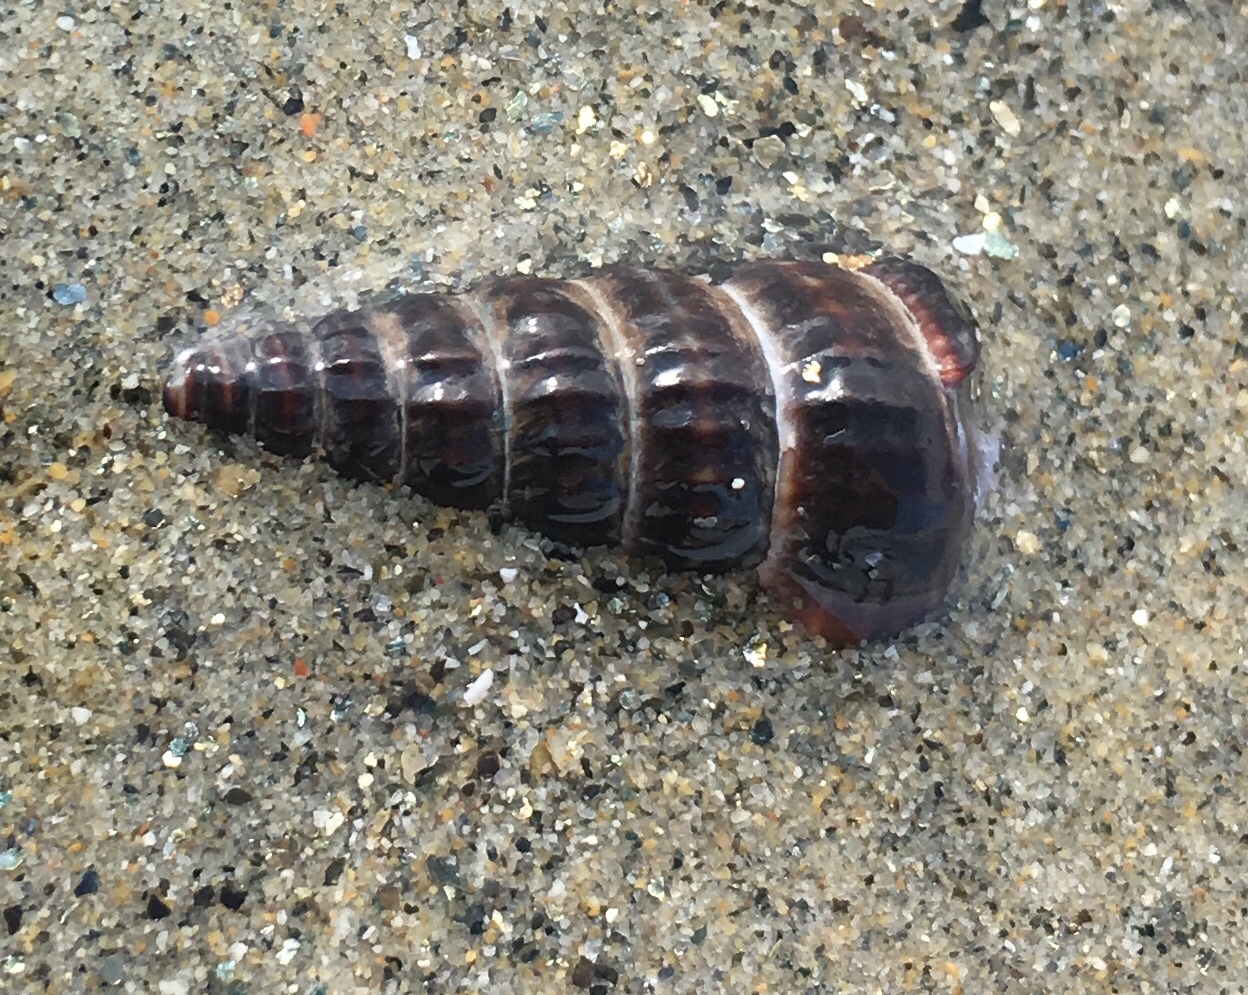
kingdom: Animalia
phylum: Mollusca
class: Gastropoda
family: Potamididae
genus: Cerithideopsis
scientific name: Cerithideopsis californica
